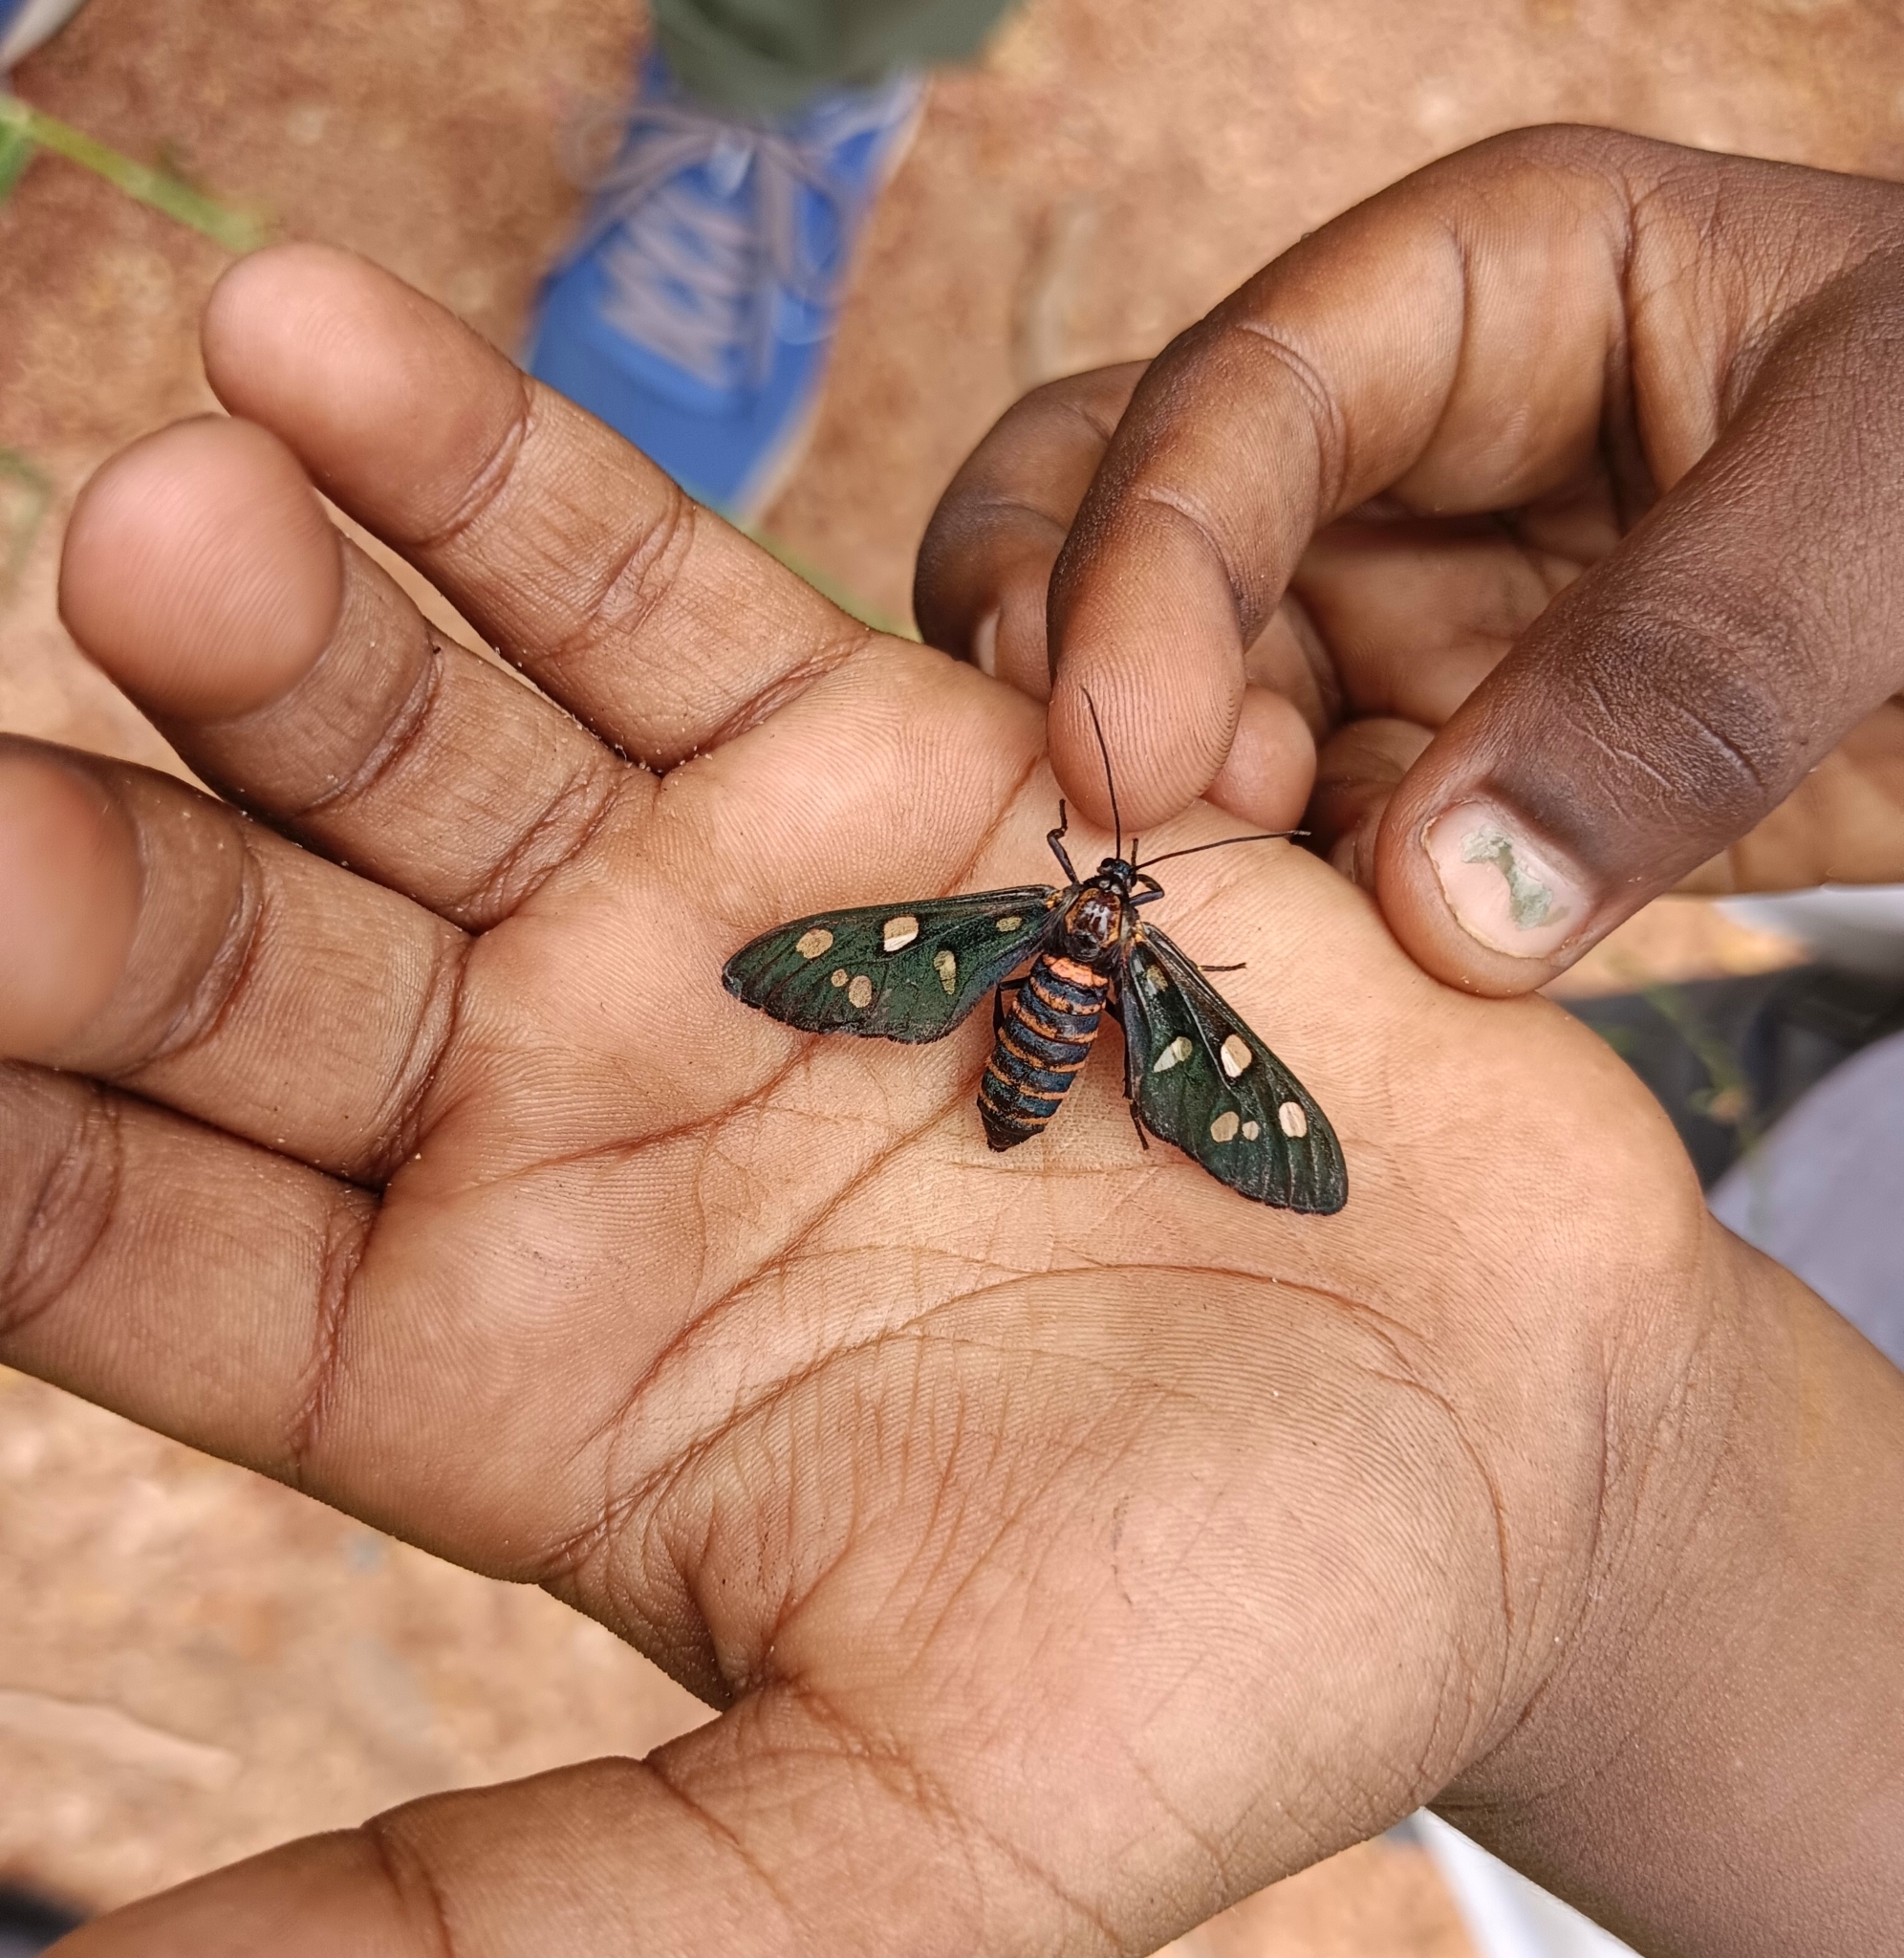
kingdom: Animalia
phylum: Arthropoda
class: Insecta
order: Lepidoptera
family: Erebidae
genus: Amata
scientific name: Amata passalis
